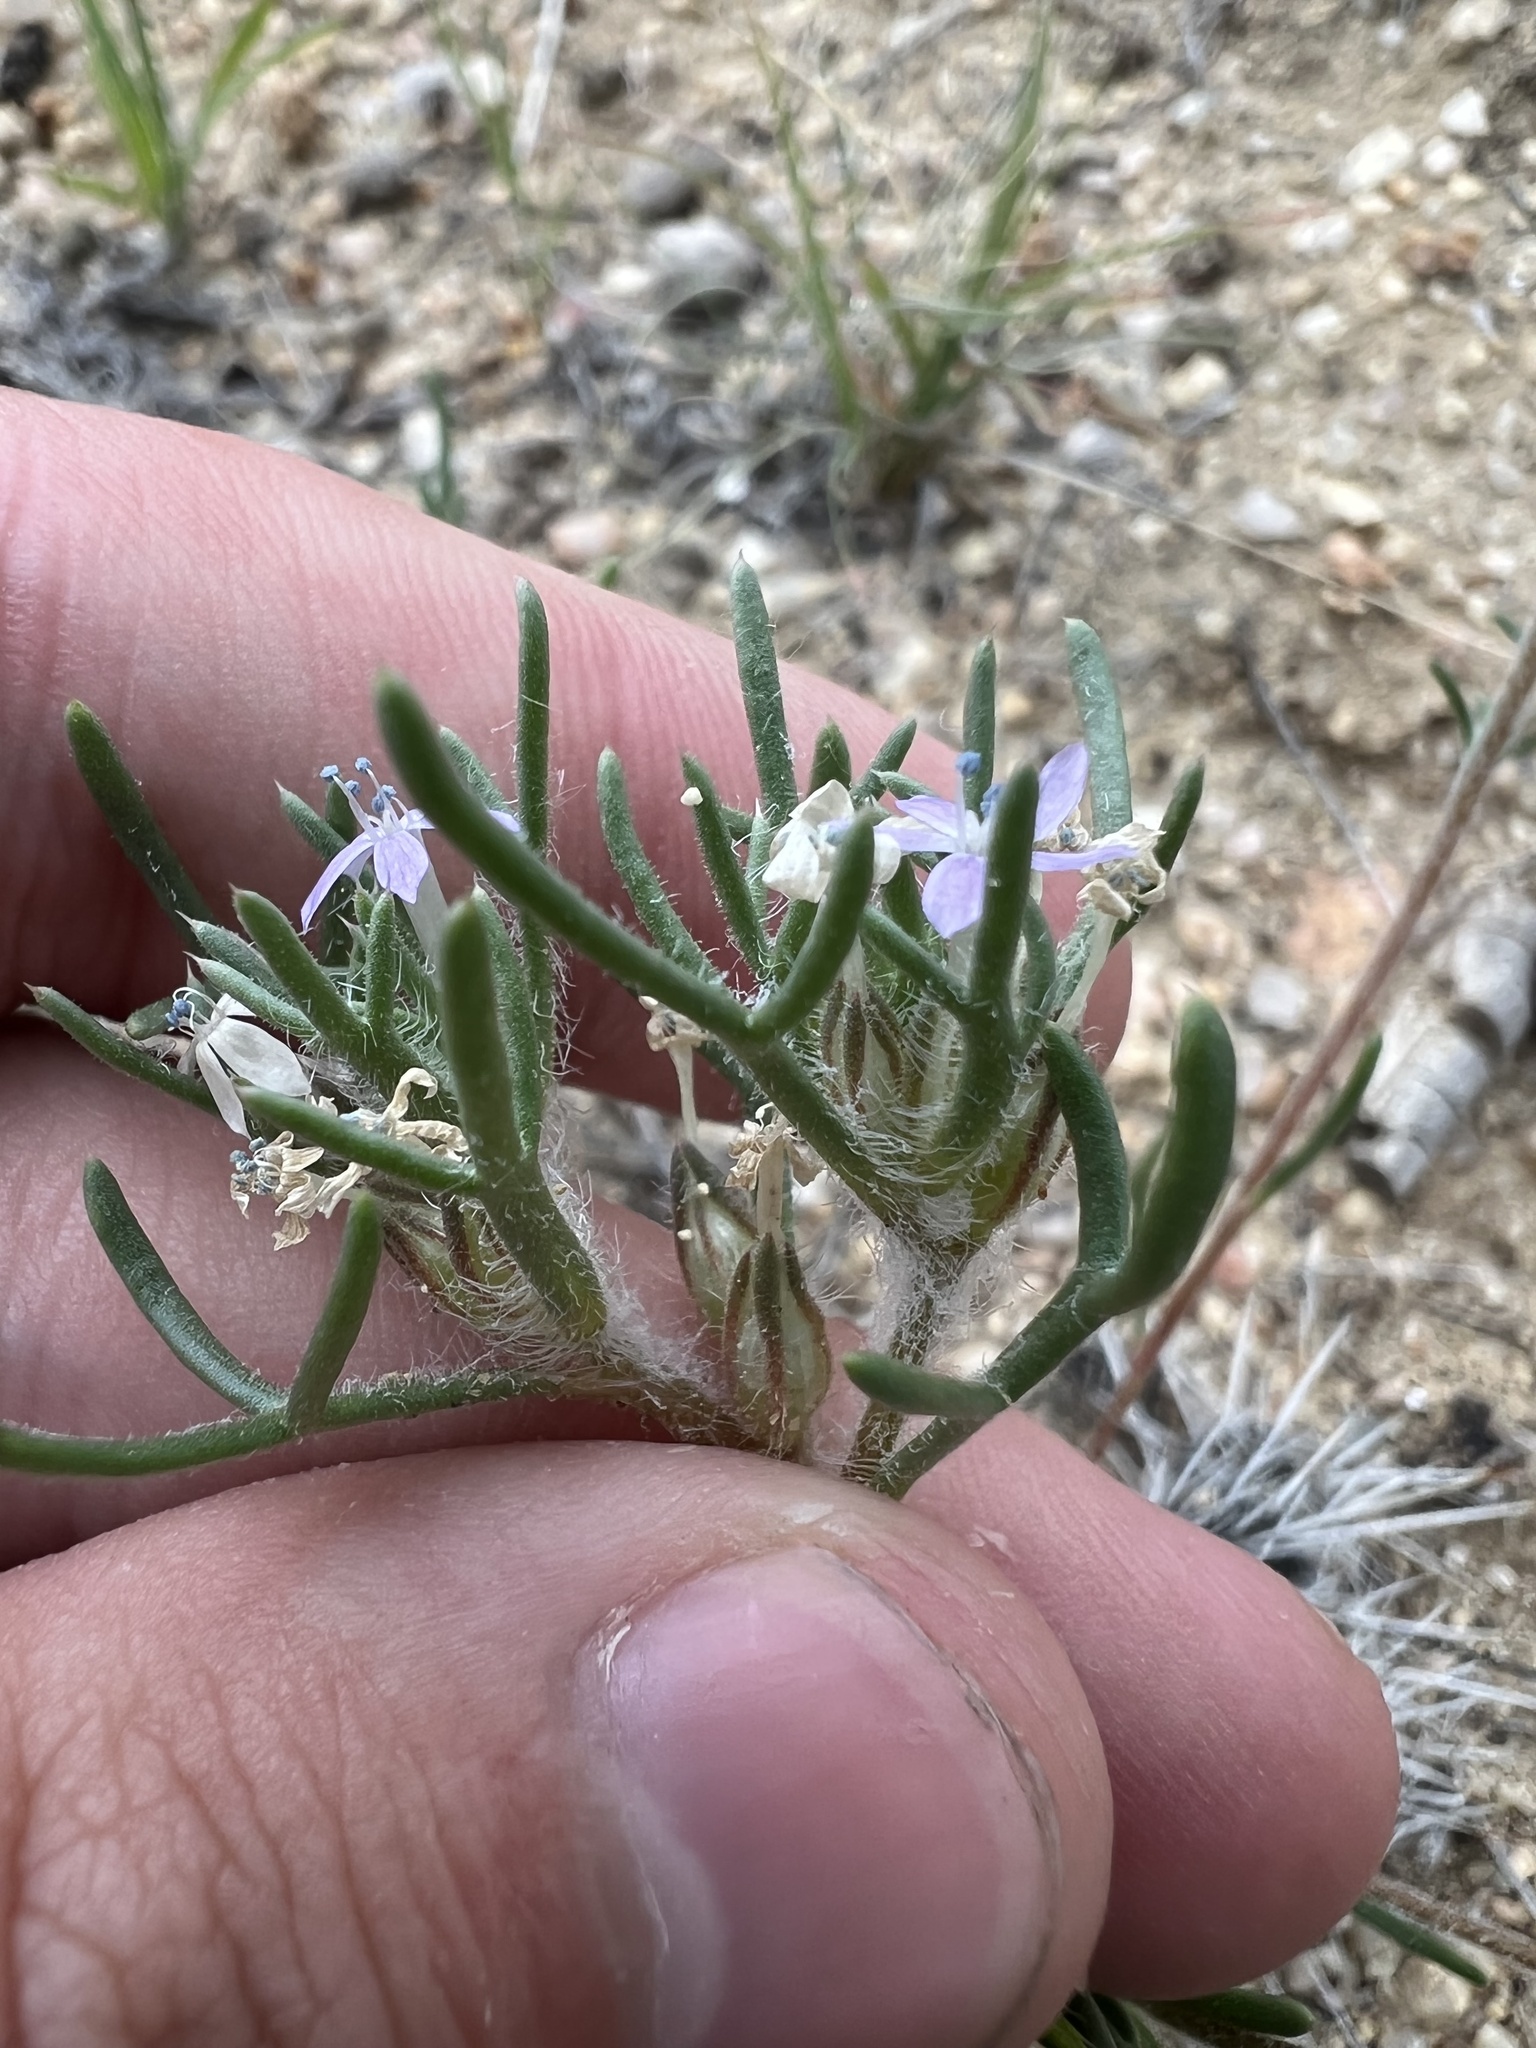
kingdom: Plantae
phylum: Tracheophyta
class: Magnoliopsida
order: Ericales
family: Polemoniaceae
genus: Ipomopsis
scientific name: Ipomopsis pumila
